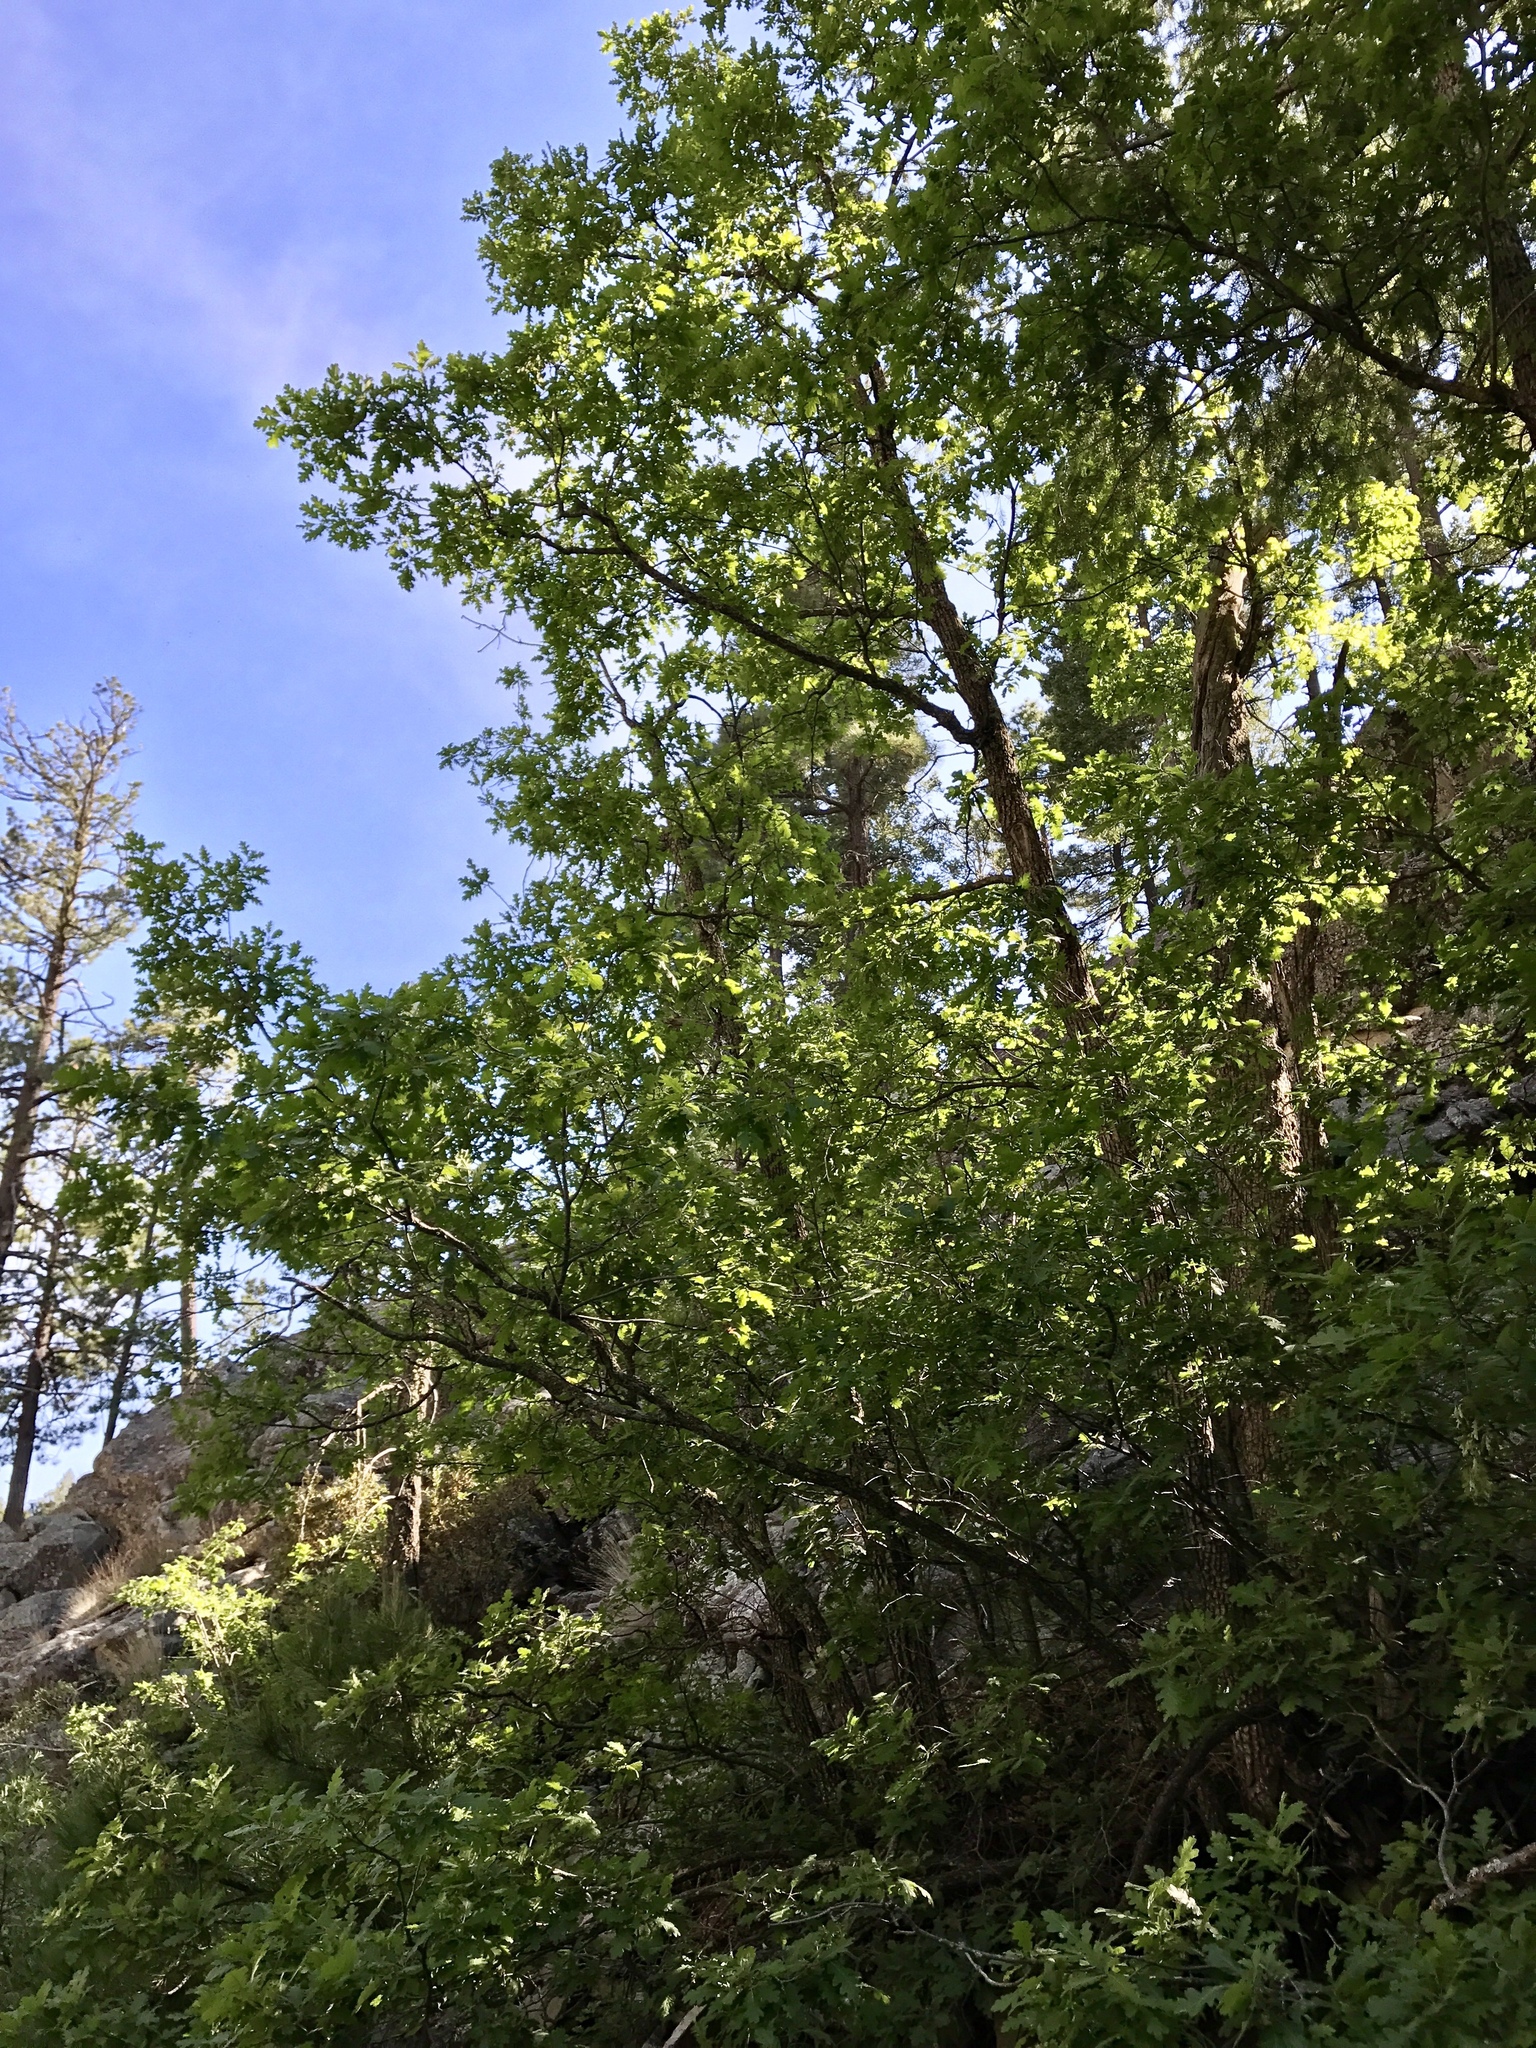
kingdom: Plantae
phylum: Tracheophyta
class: Magnoliopsida
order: Fagales
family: Fagaceae
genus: Quercus
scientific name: Quercus gambelii
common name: Gambel oak
